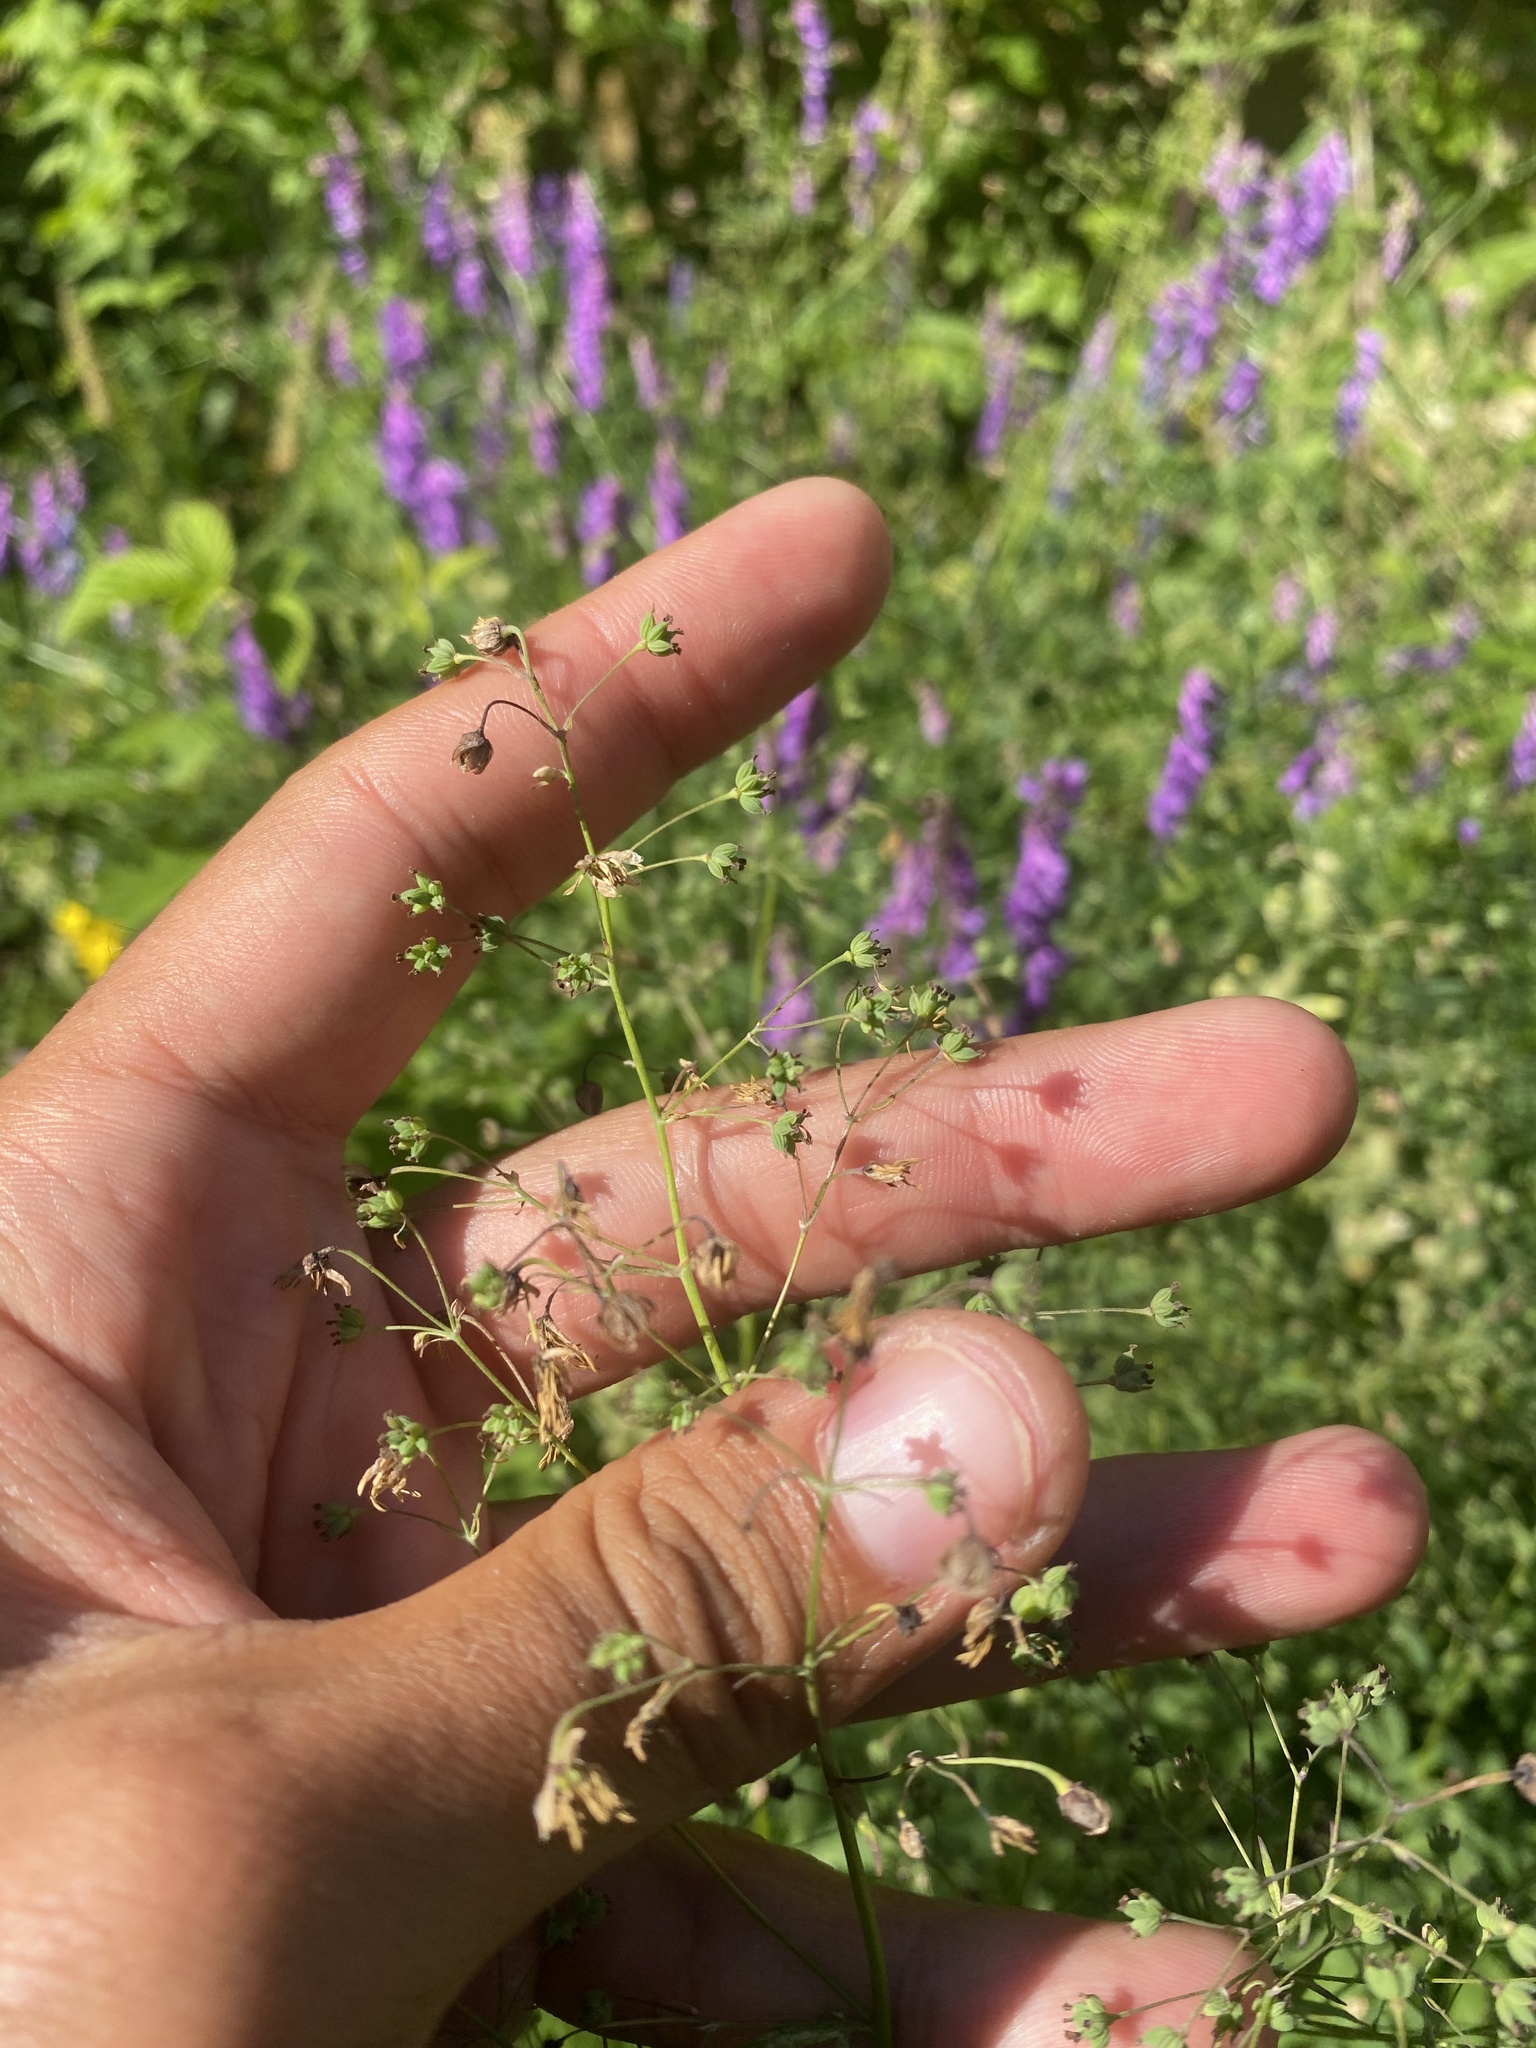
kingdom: Plantae
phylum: Tracheophyta
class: Magnoliopsida
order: Ranunculales
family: Ranunculaceae
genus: Thalictrum
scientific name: Thalictrum simplex
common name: Small meadow-rue
